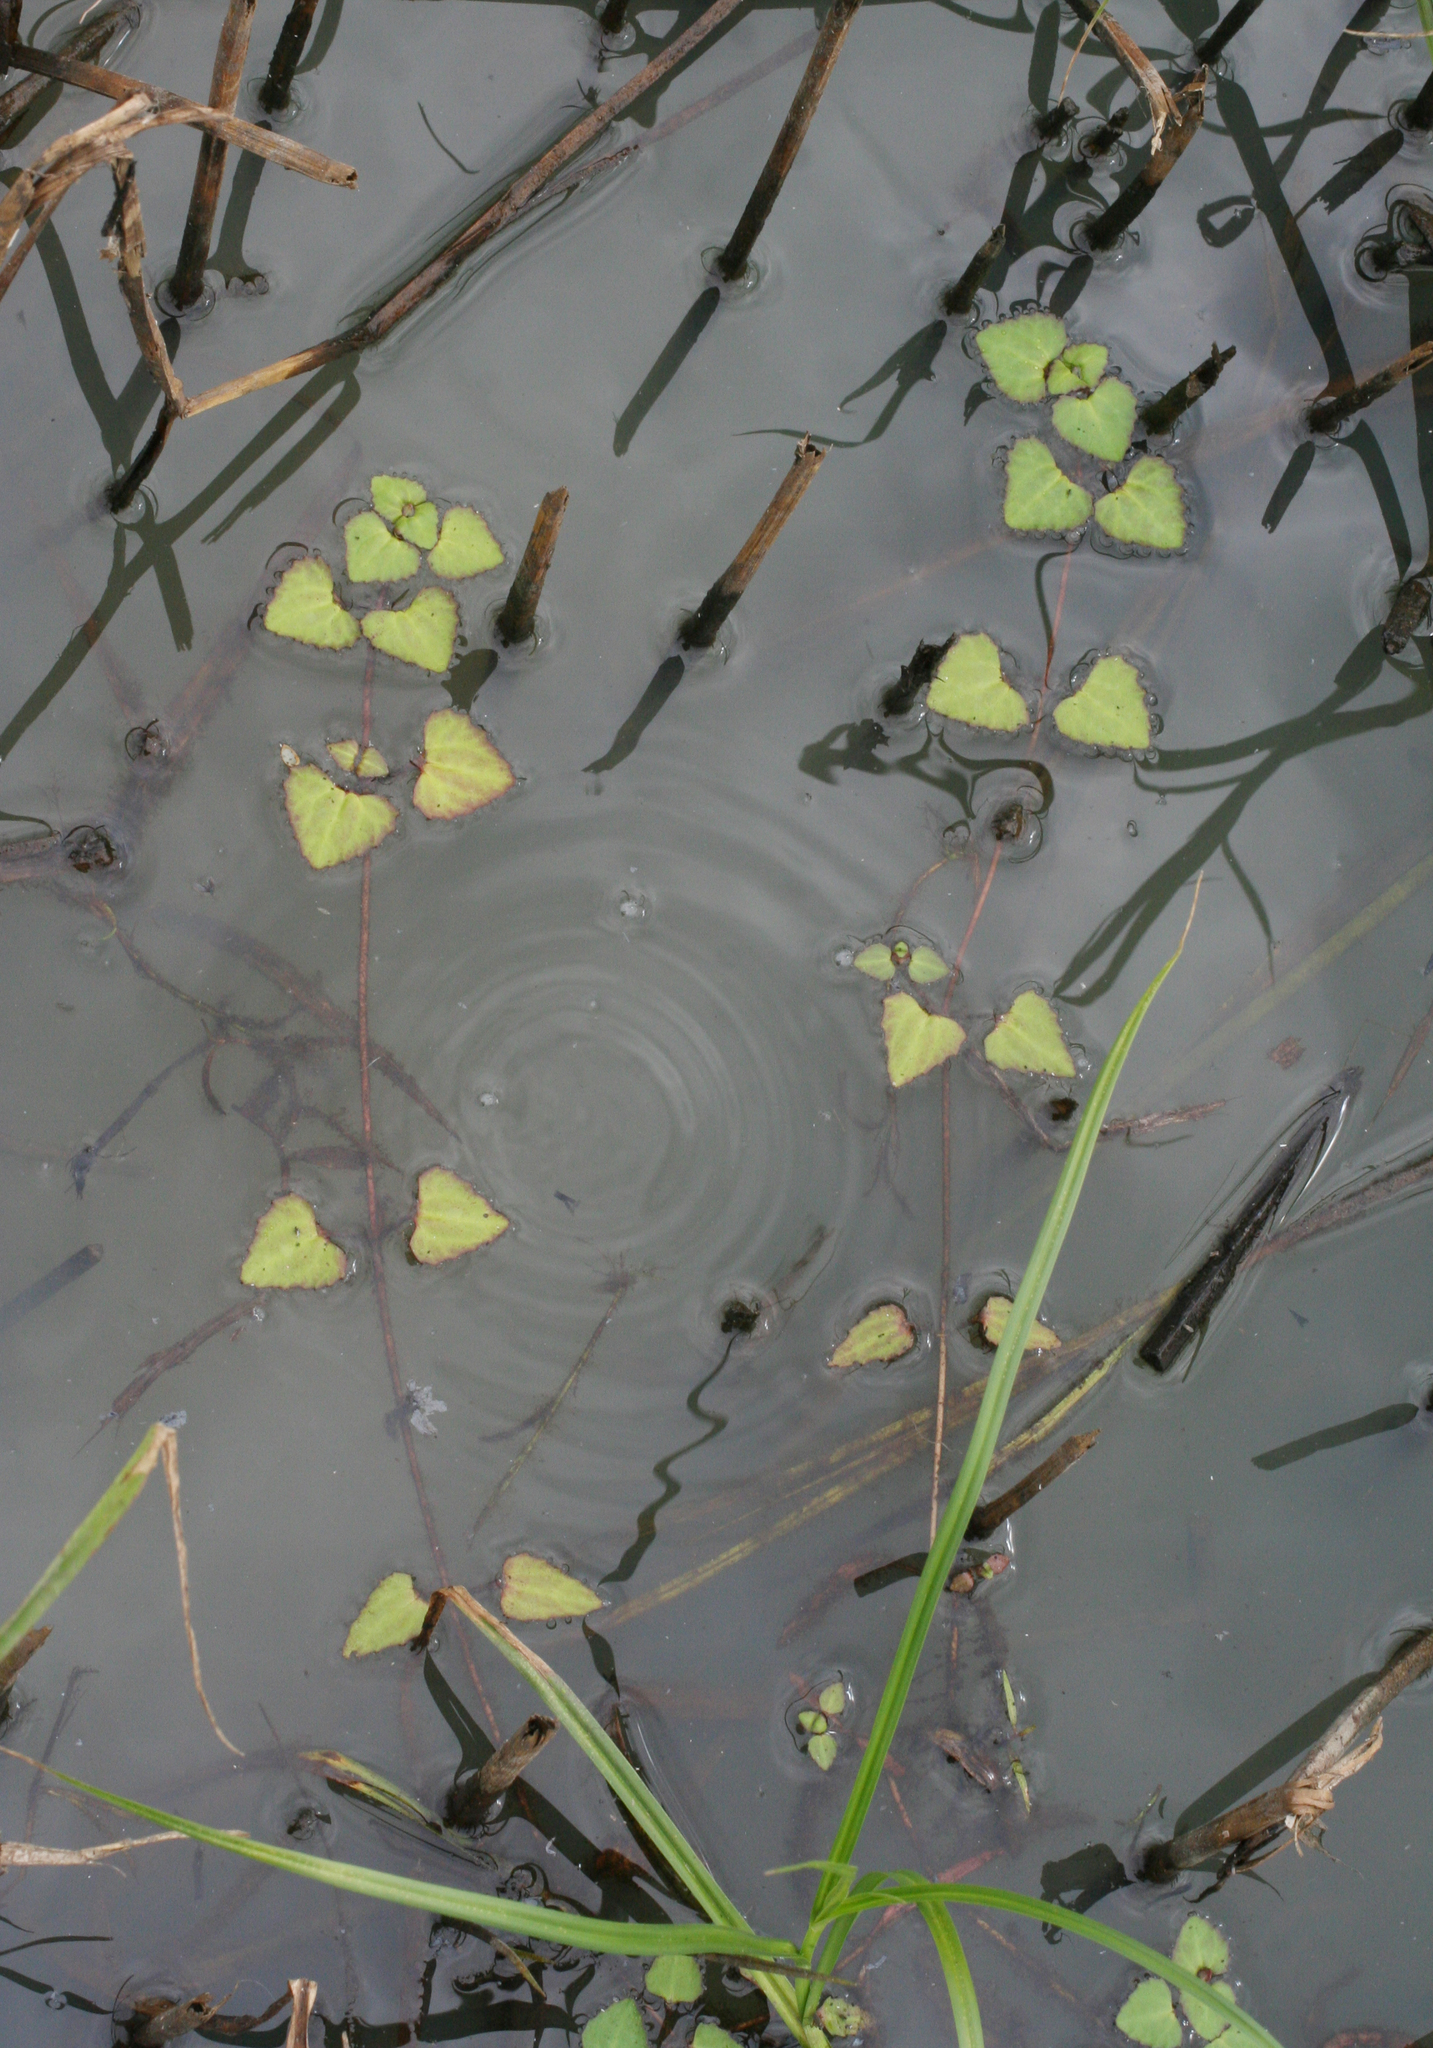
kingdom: Plantae
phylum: Tracheophyta
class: Magnoliopsida
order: Lamiales
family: Plantaginaceae
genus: Trapella
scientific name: Trapella sinensis
